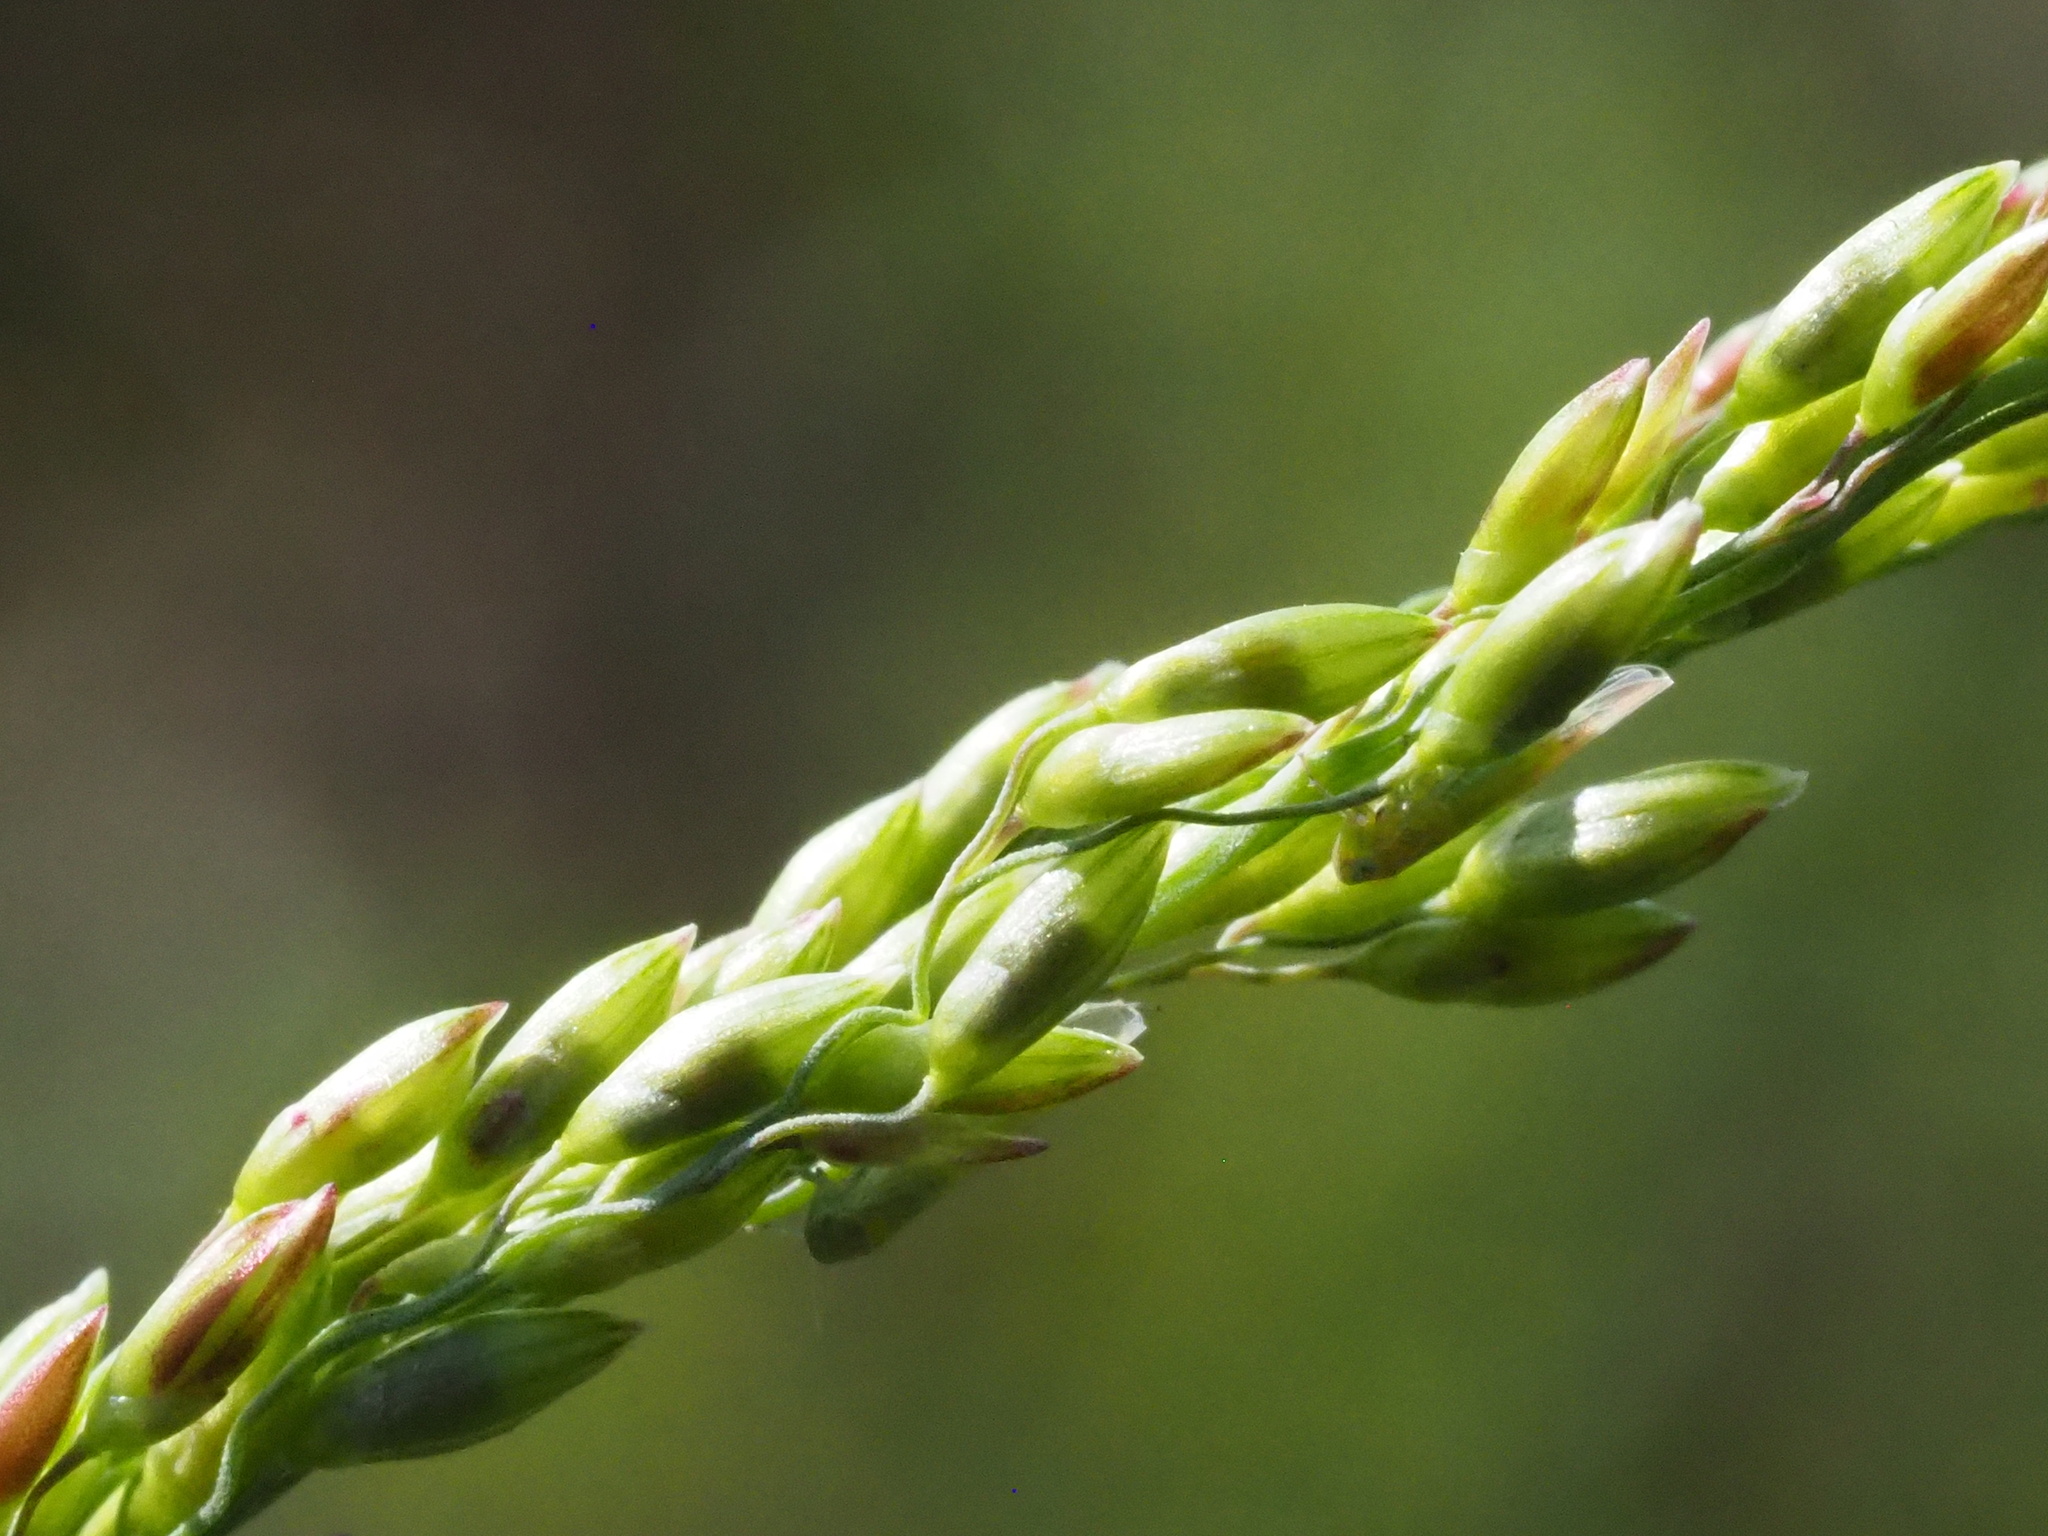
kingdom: Plantae
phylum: Tracheophyta
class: Liliopsida
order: Poales
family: Poaceae
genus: Megathyrsus
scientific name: Megathyrsus maximus
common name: Guineagrass
